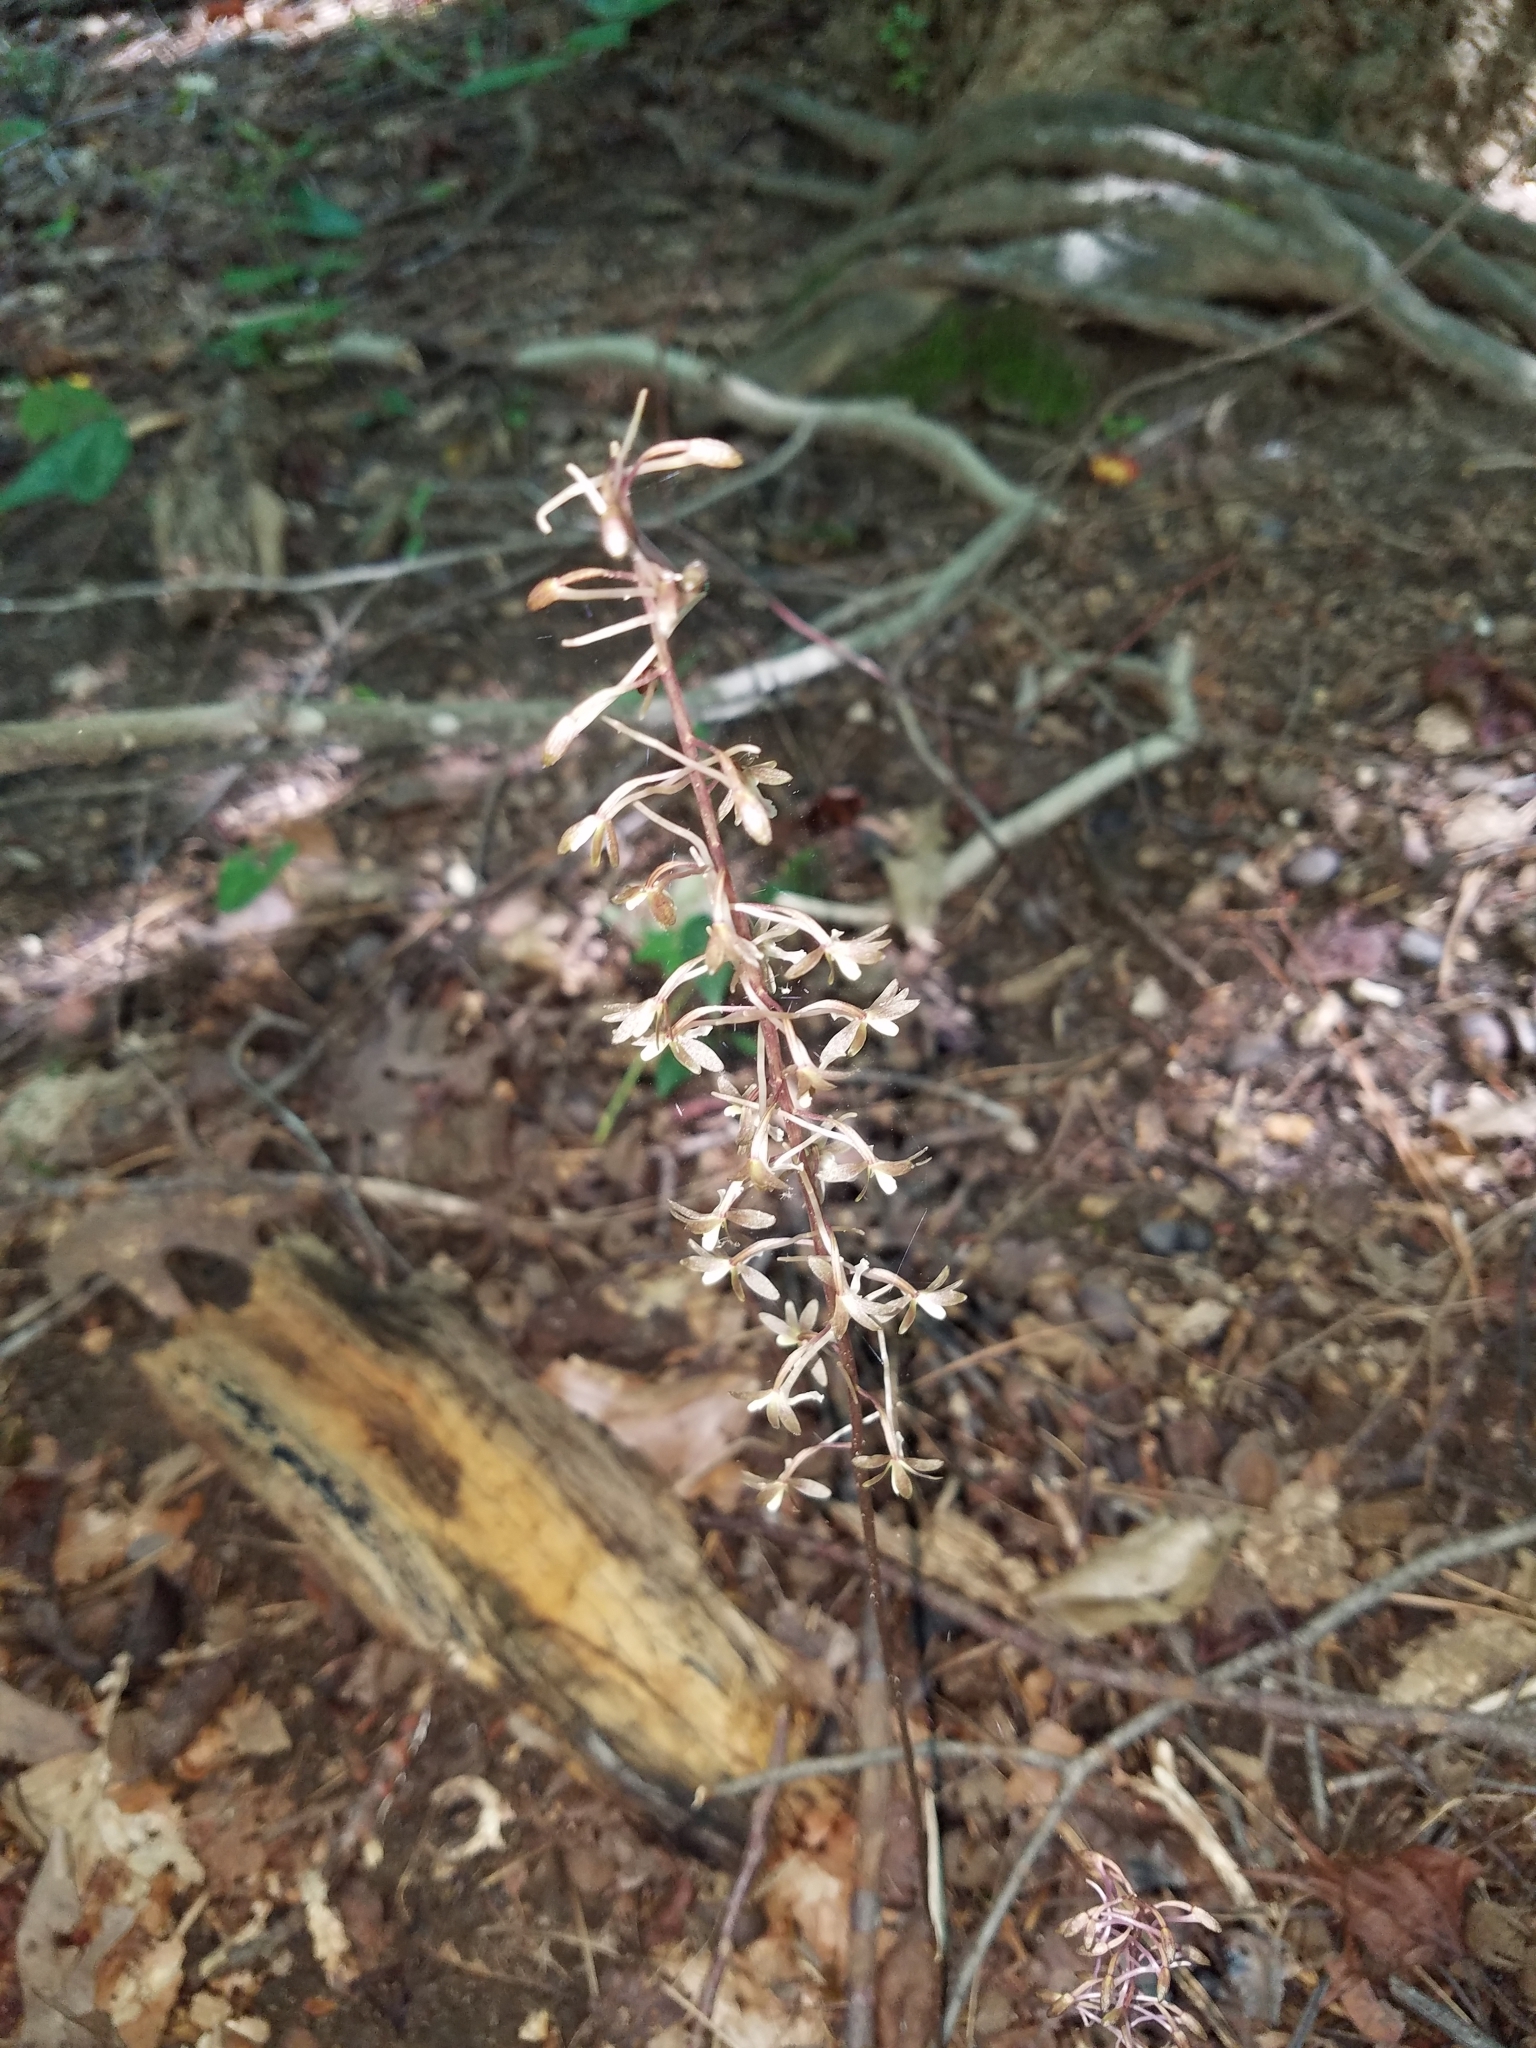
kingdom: Plantae
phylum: Tracheophyta
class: Liliopsida
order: Asparagales
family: Orchidaceae
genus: Tipularia
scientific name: Tipularia discolor
